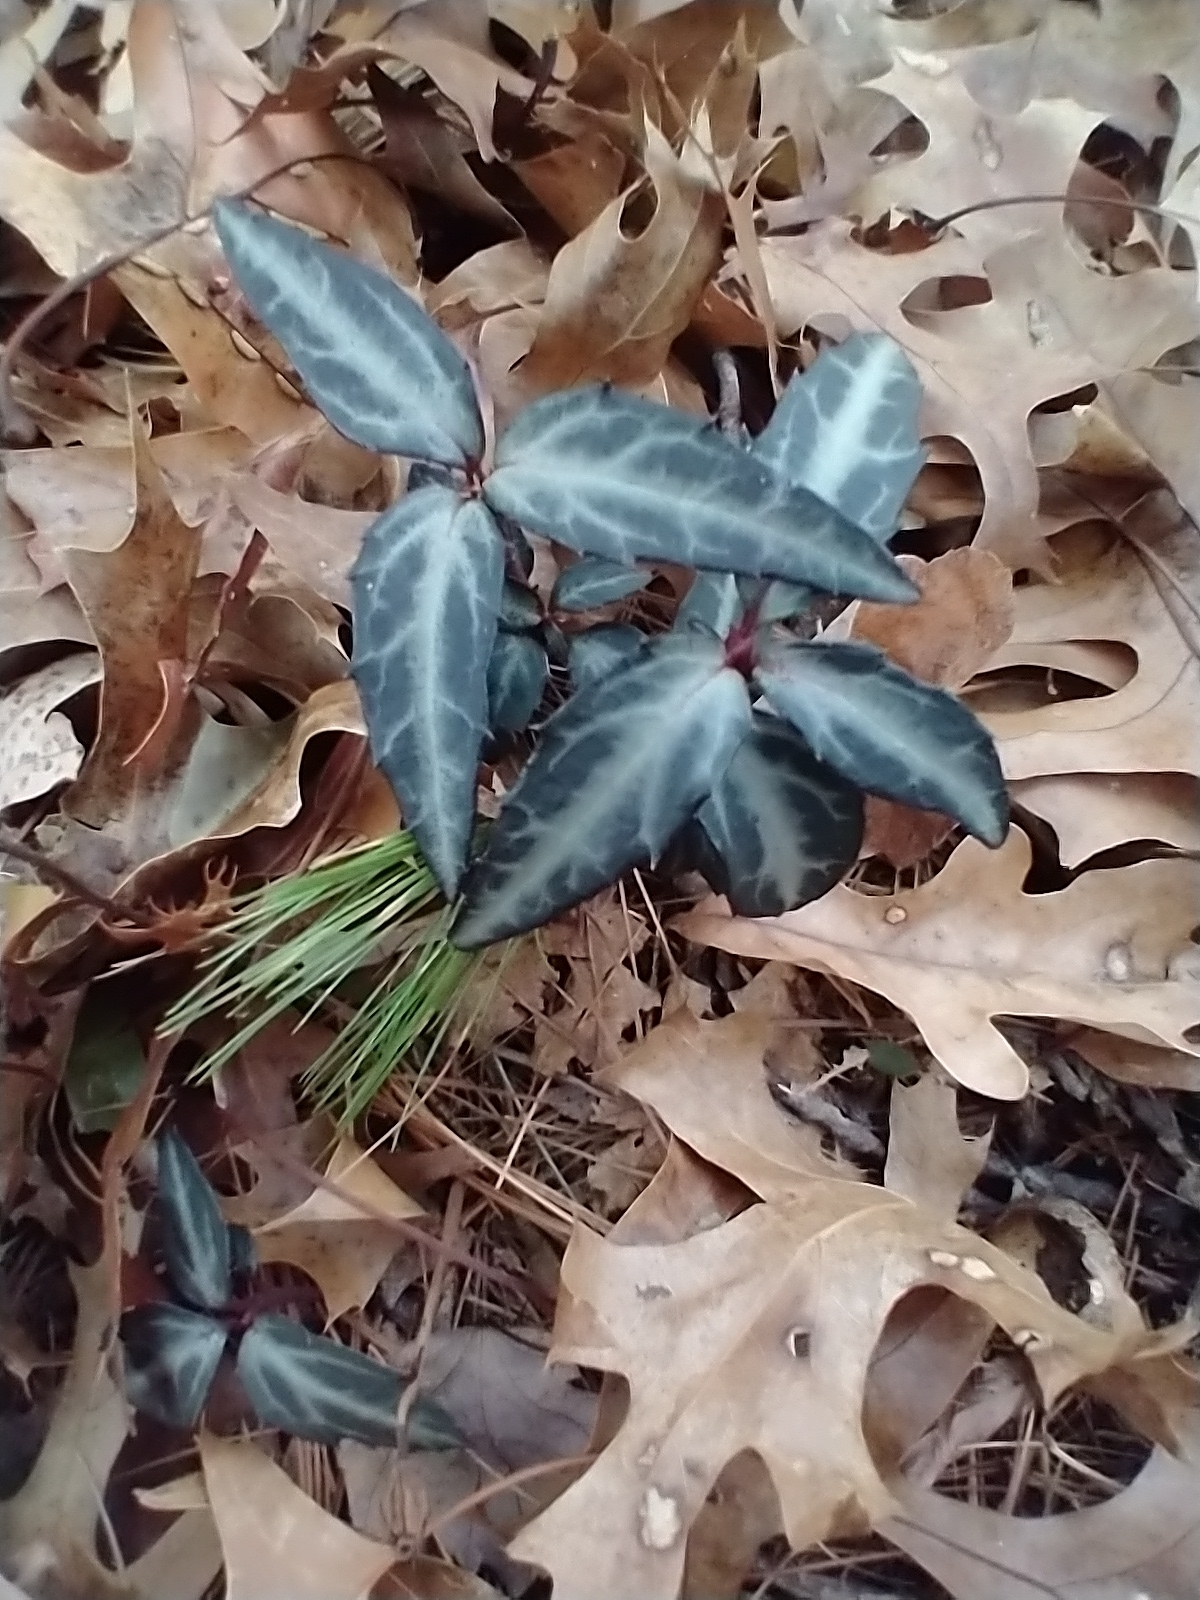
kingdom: Plantae
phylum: Tracheophyta
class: Magnoliopsida
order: Ericales
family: Ericaceae
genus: Chimaphila
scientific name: Chimaphila maculata
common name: Spotted pipsissewa
